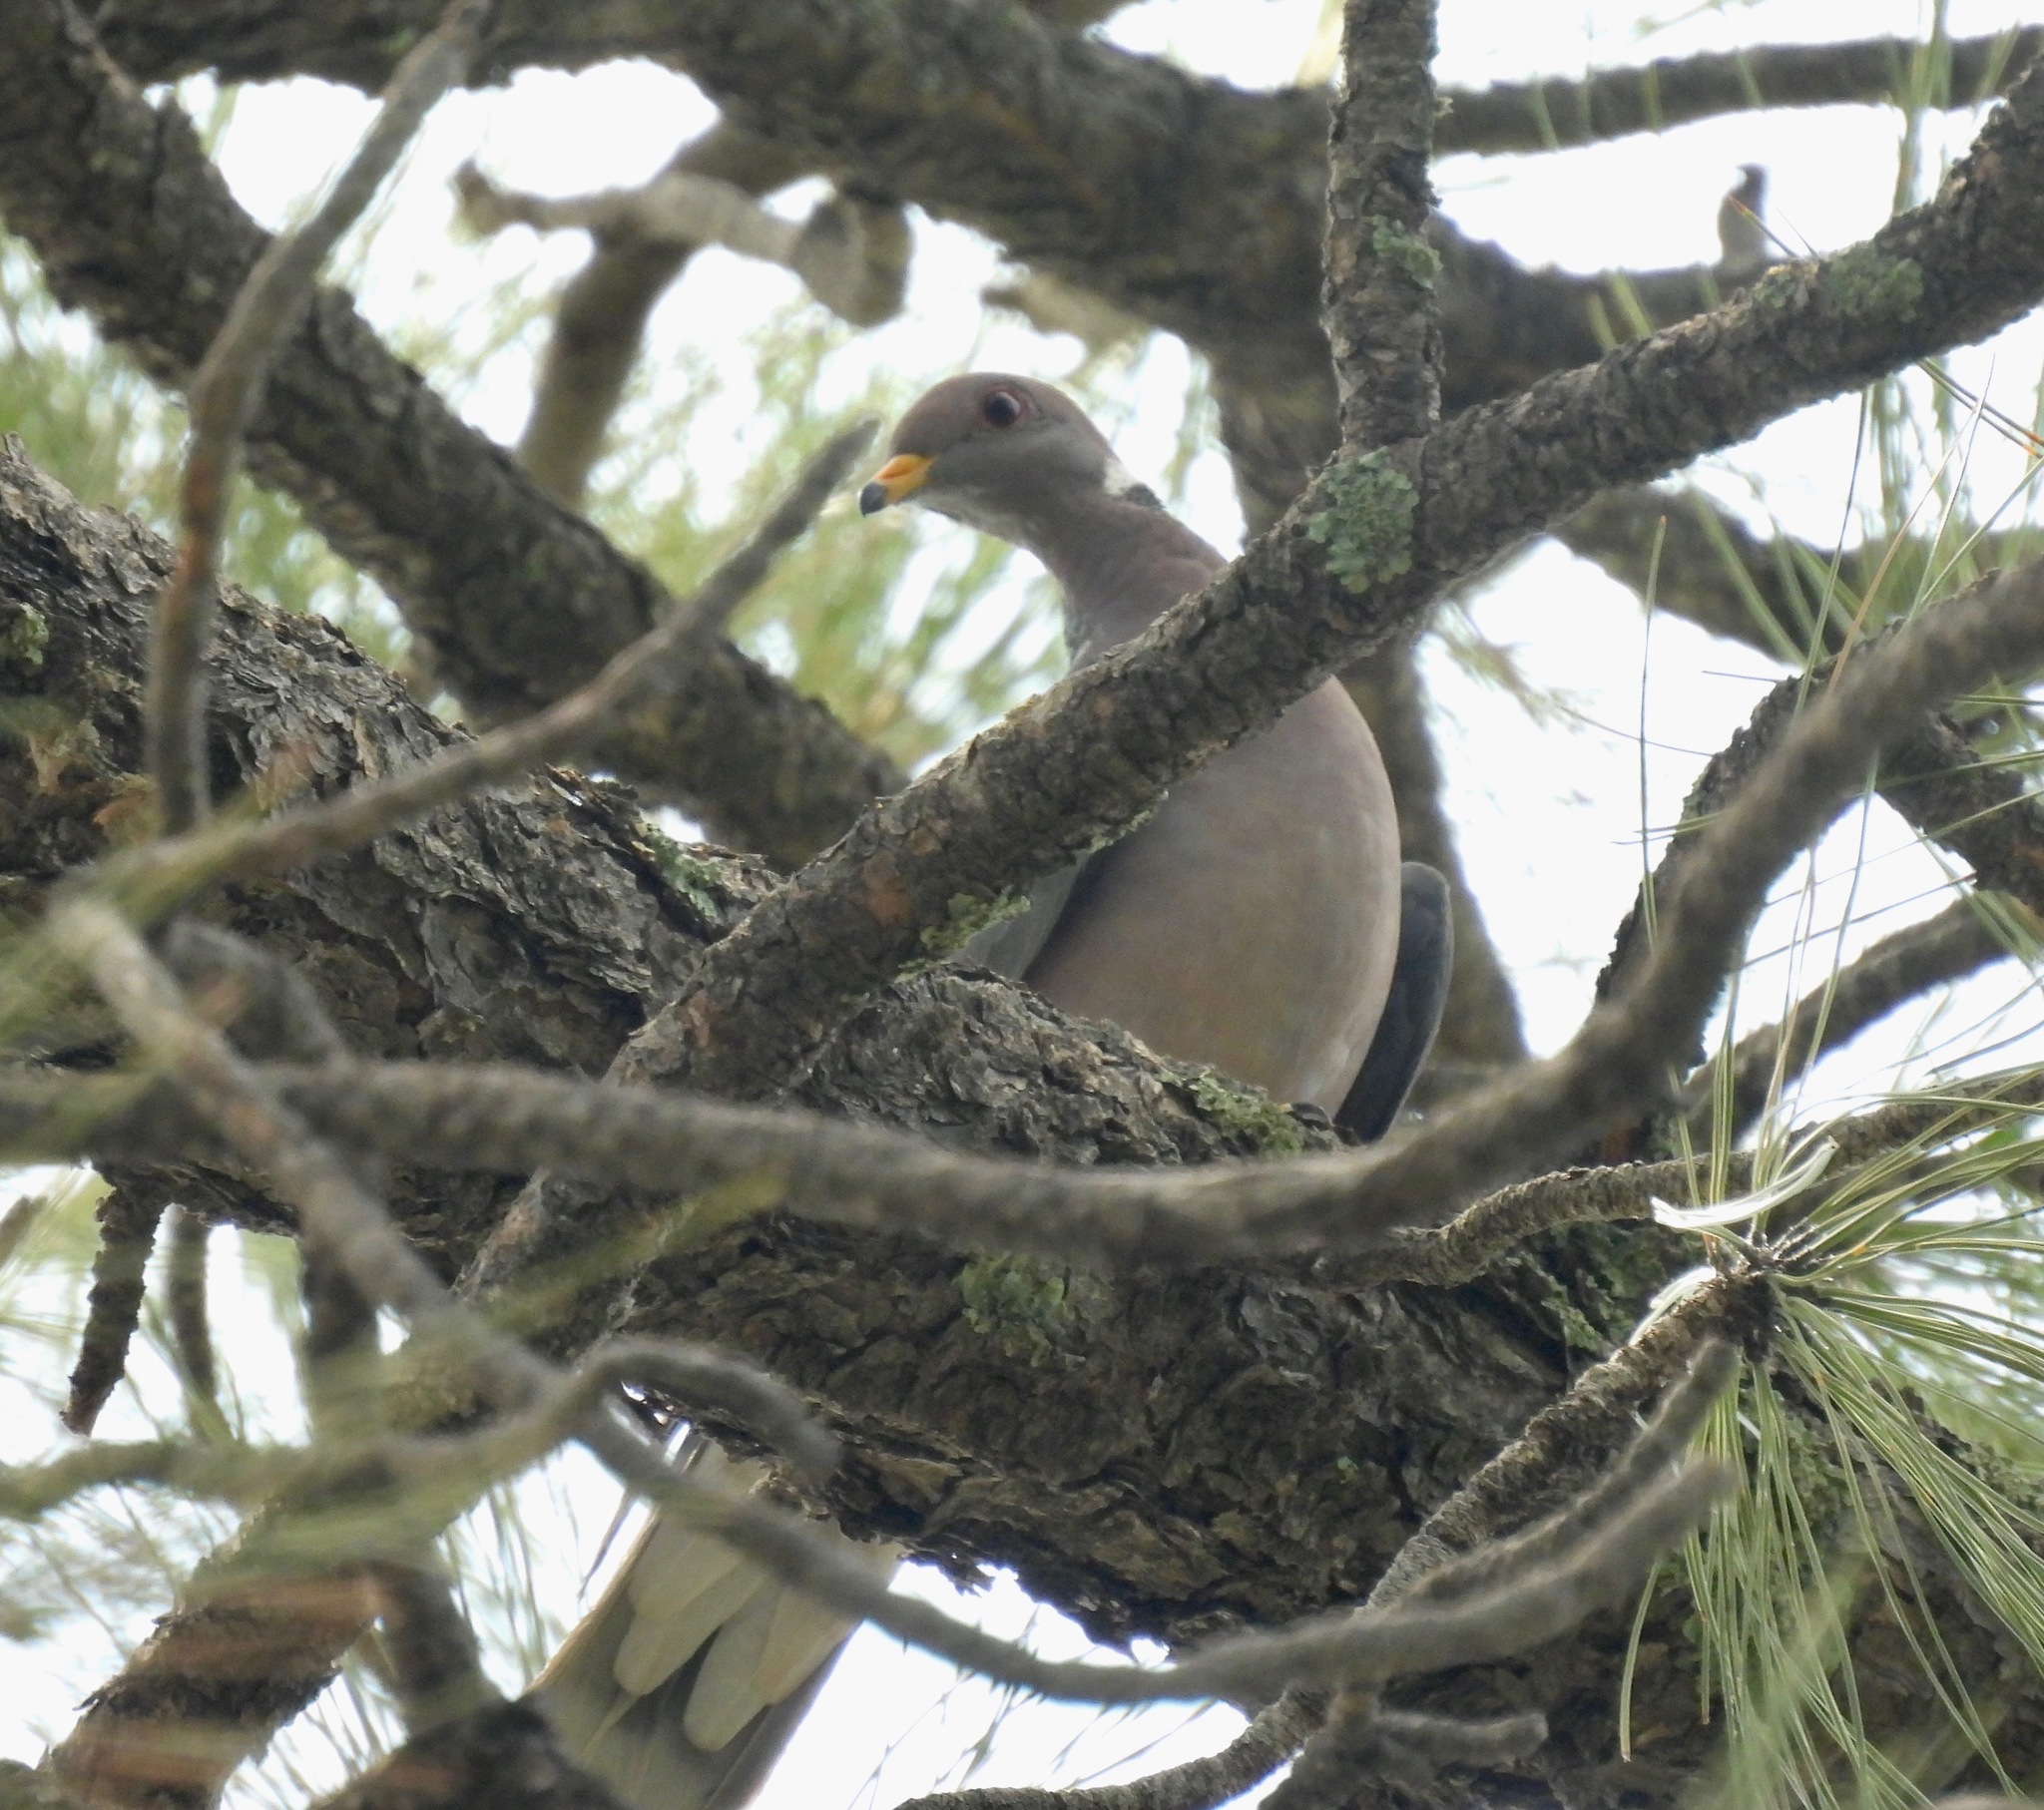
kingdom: Animalia
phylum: Chordata
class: Aves
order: Columbiformes
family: Columbidae
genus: Patagioenas
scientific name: Patagioenas fasciata
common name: Band-tailed pigeon
